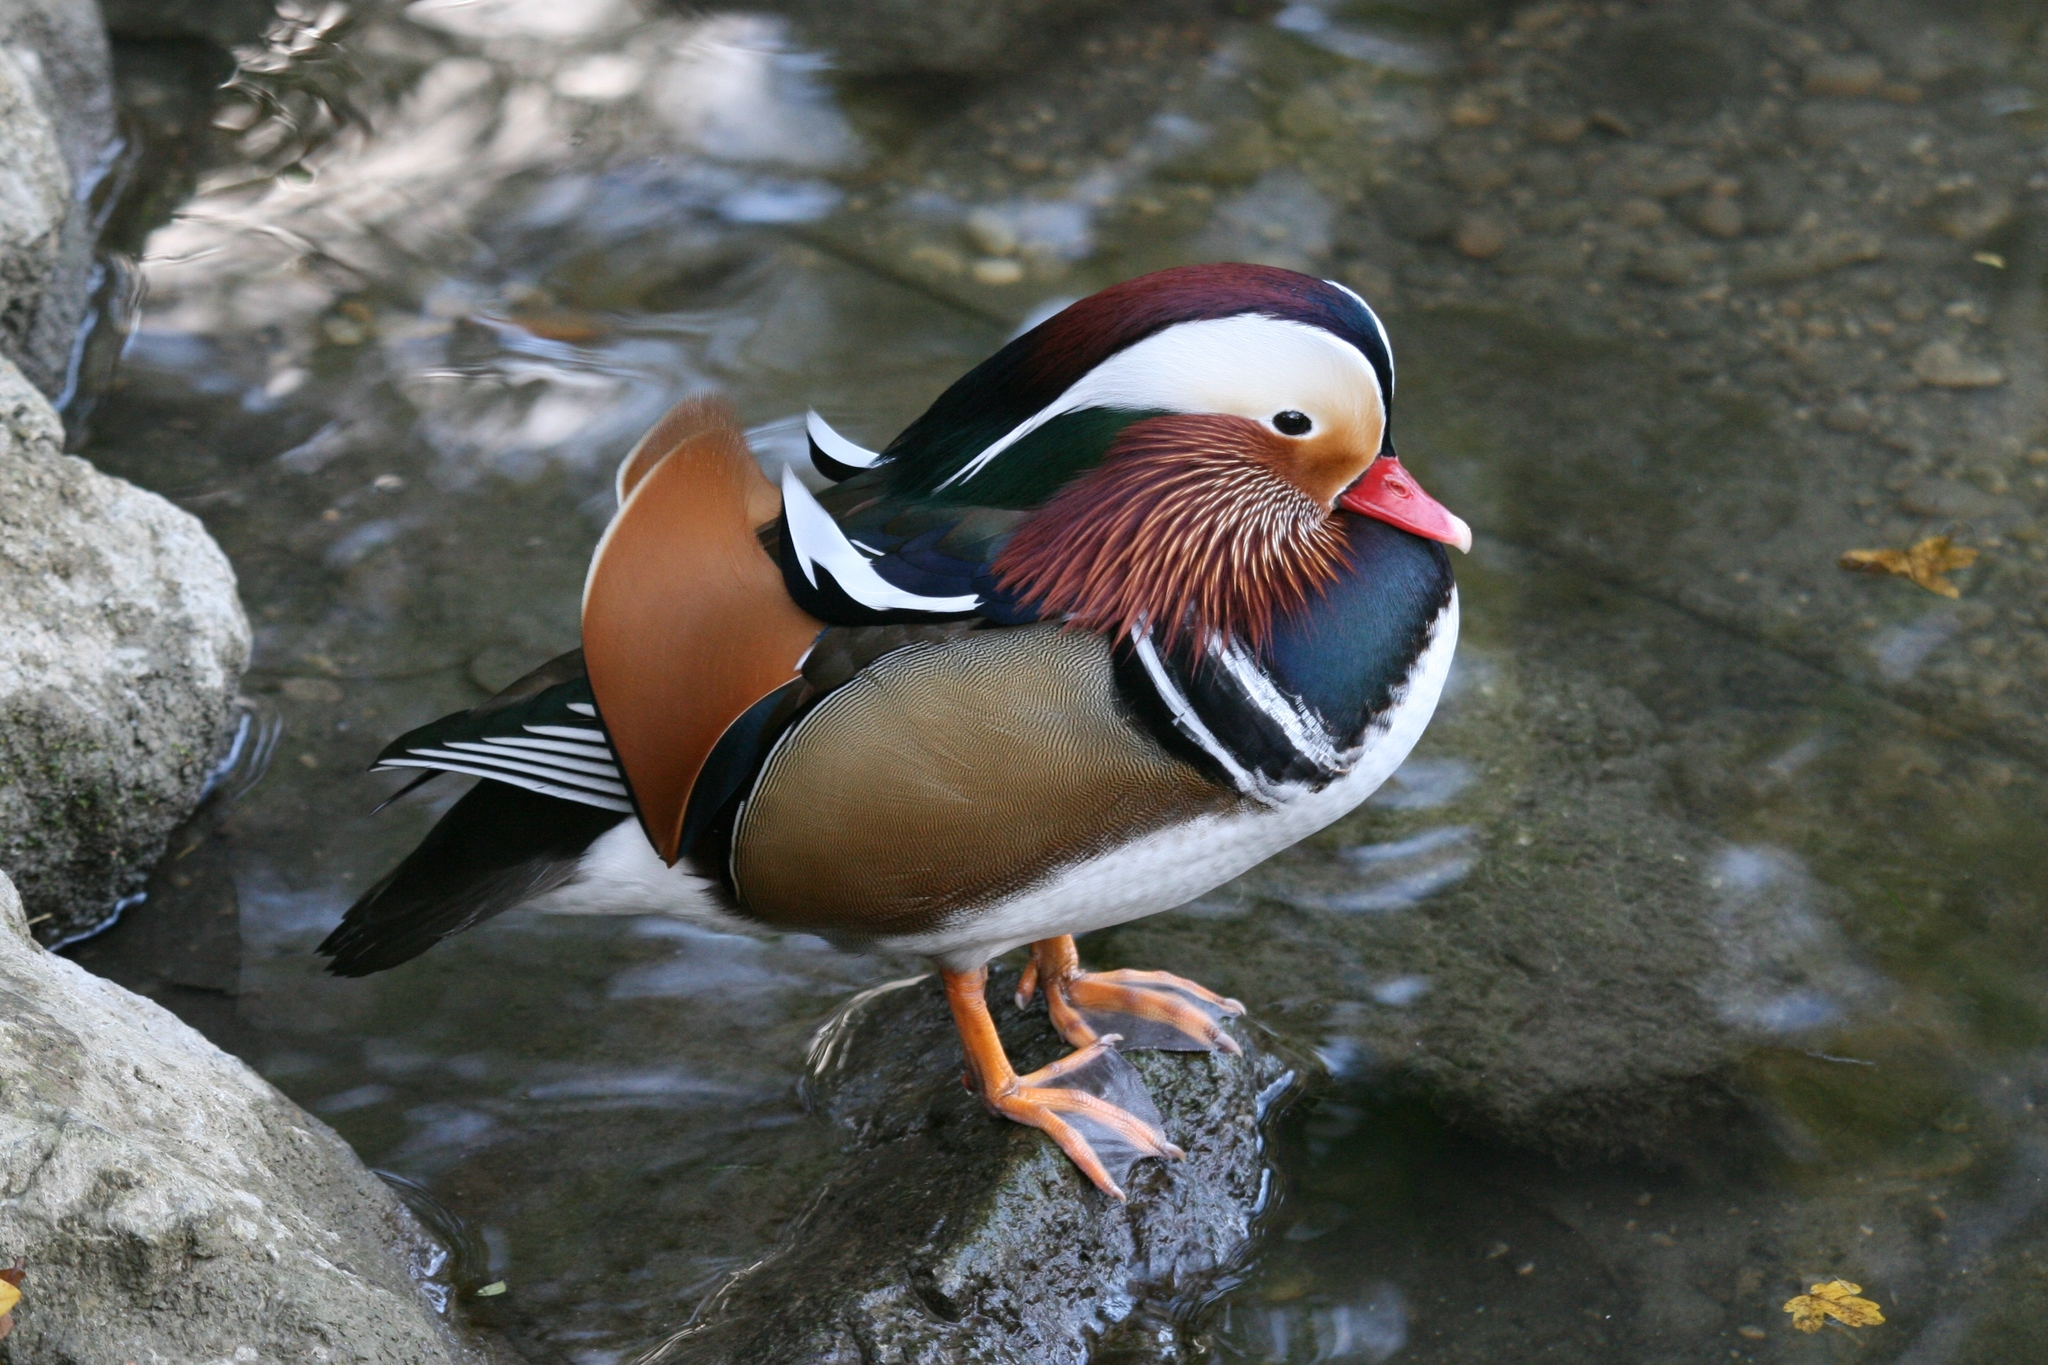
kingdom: Animalia
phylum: Chordata
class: Aves
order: Anseriformes
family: Anatidae
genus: Aix
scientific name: Aix galericulata
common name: Mandarin duck
